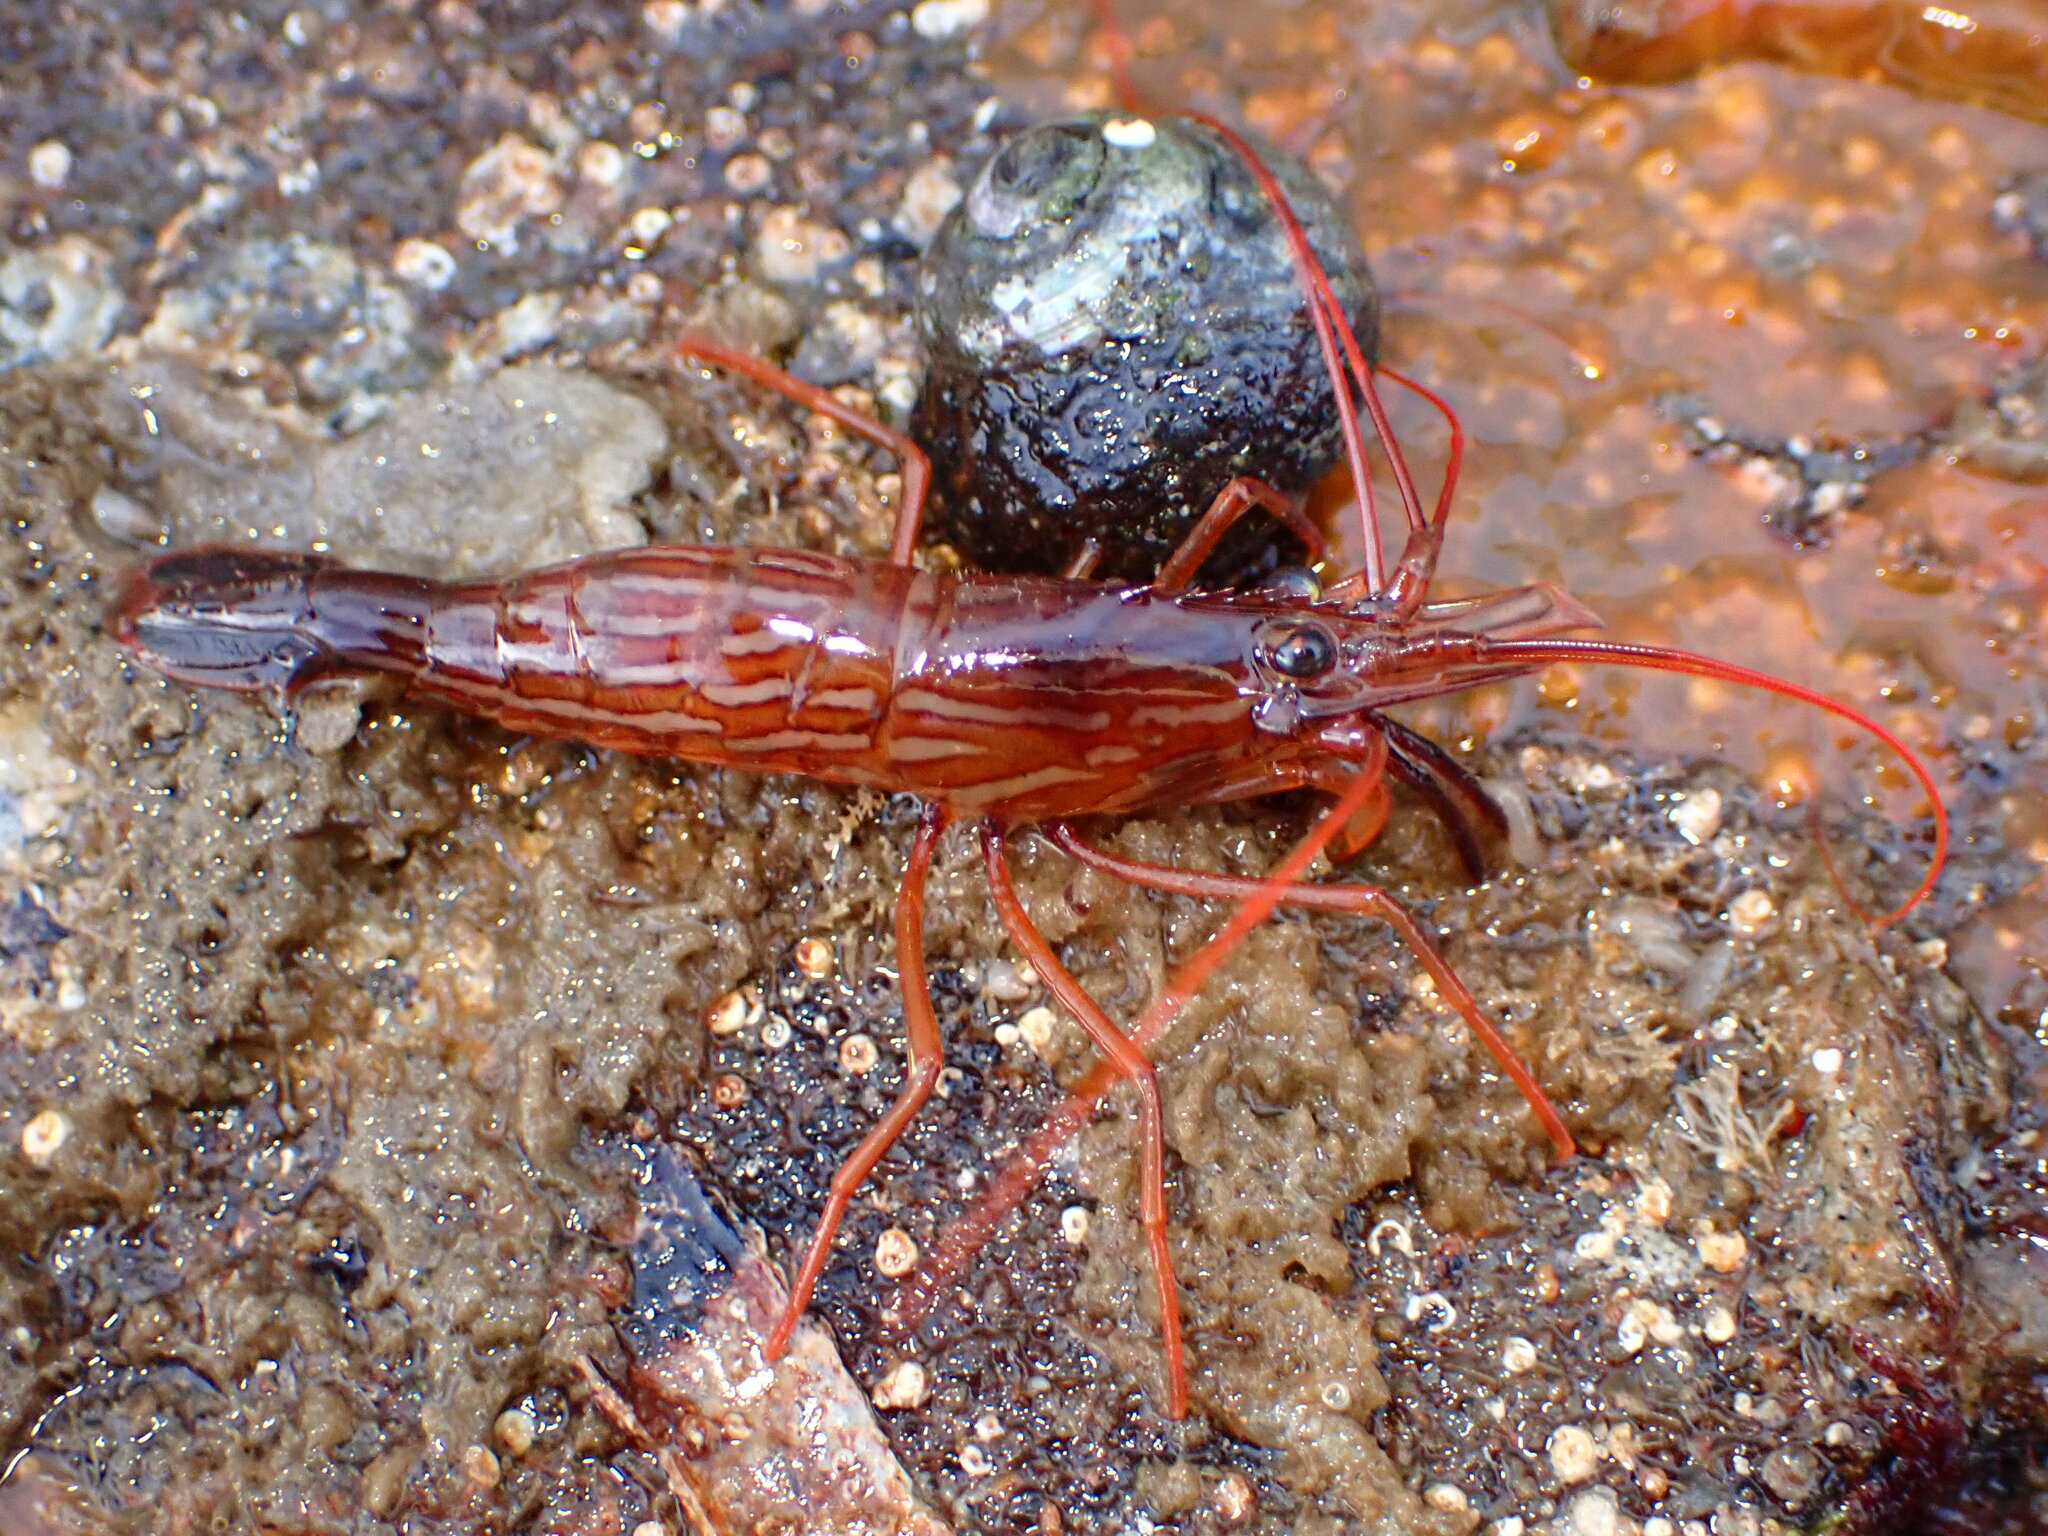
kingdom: Animalia
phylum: Arthropoda
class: Malacostraca
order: Decapoda
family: Lysmatidae
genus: Lysmata
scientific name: Lysmata californica
